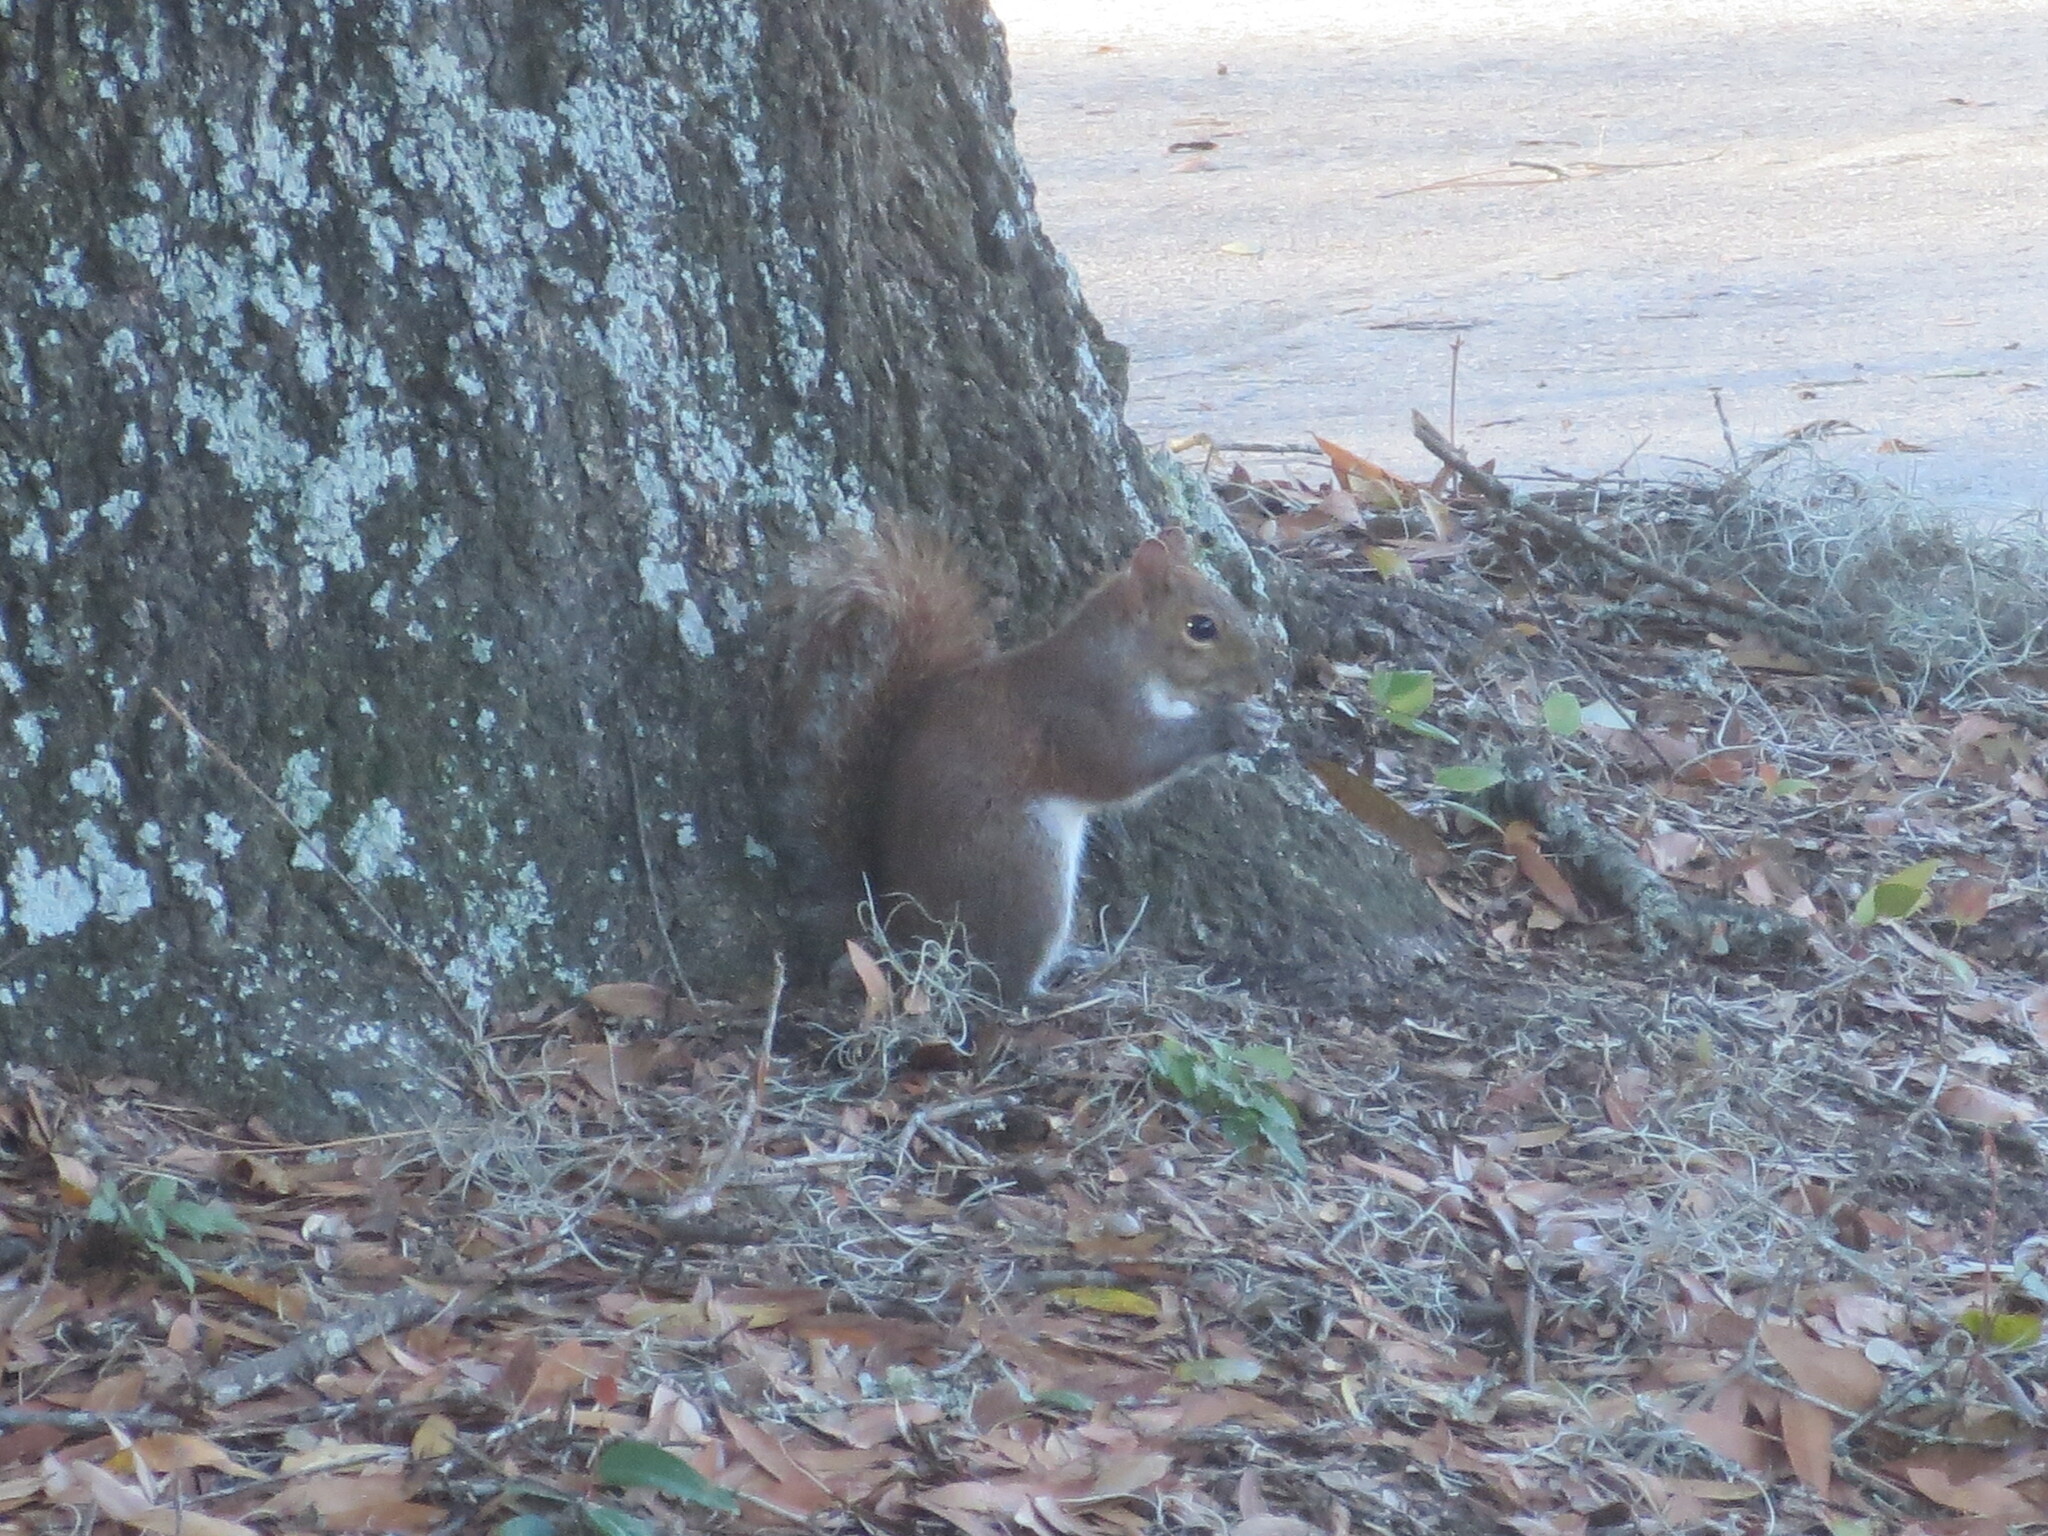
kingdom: Animalia
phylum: Chordata
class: Mammalia
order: Rodentia
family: Sciuridae
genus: Sciurus
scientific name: Sciurus carolinensis
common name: Eastern gray squirrel
